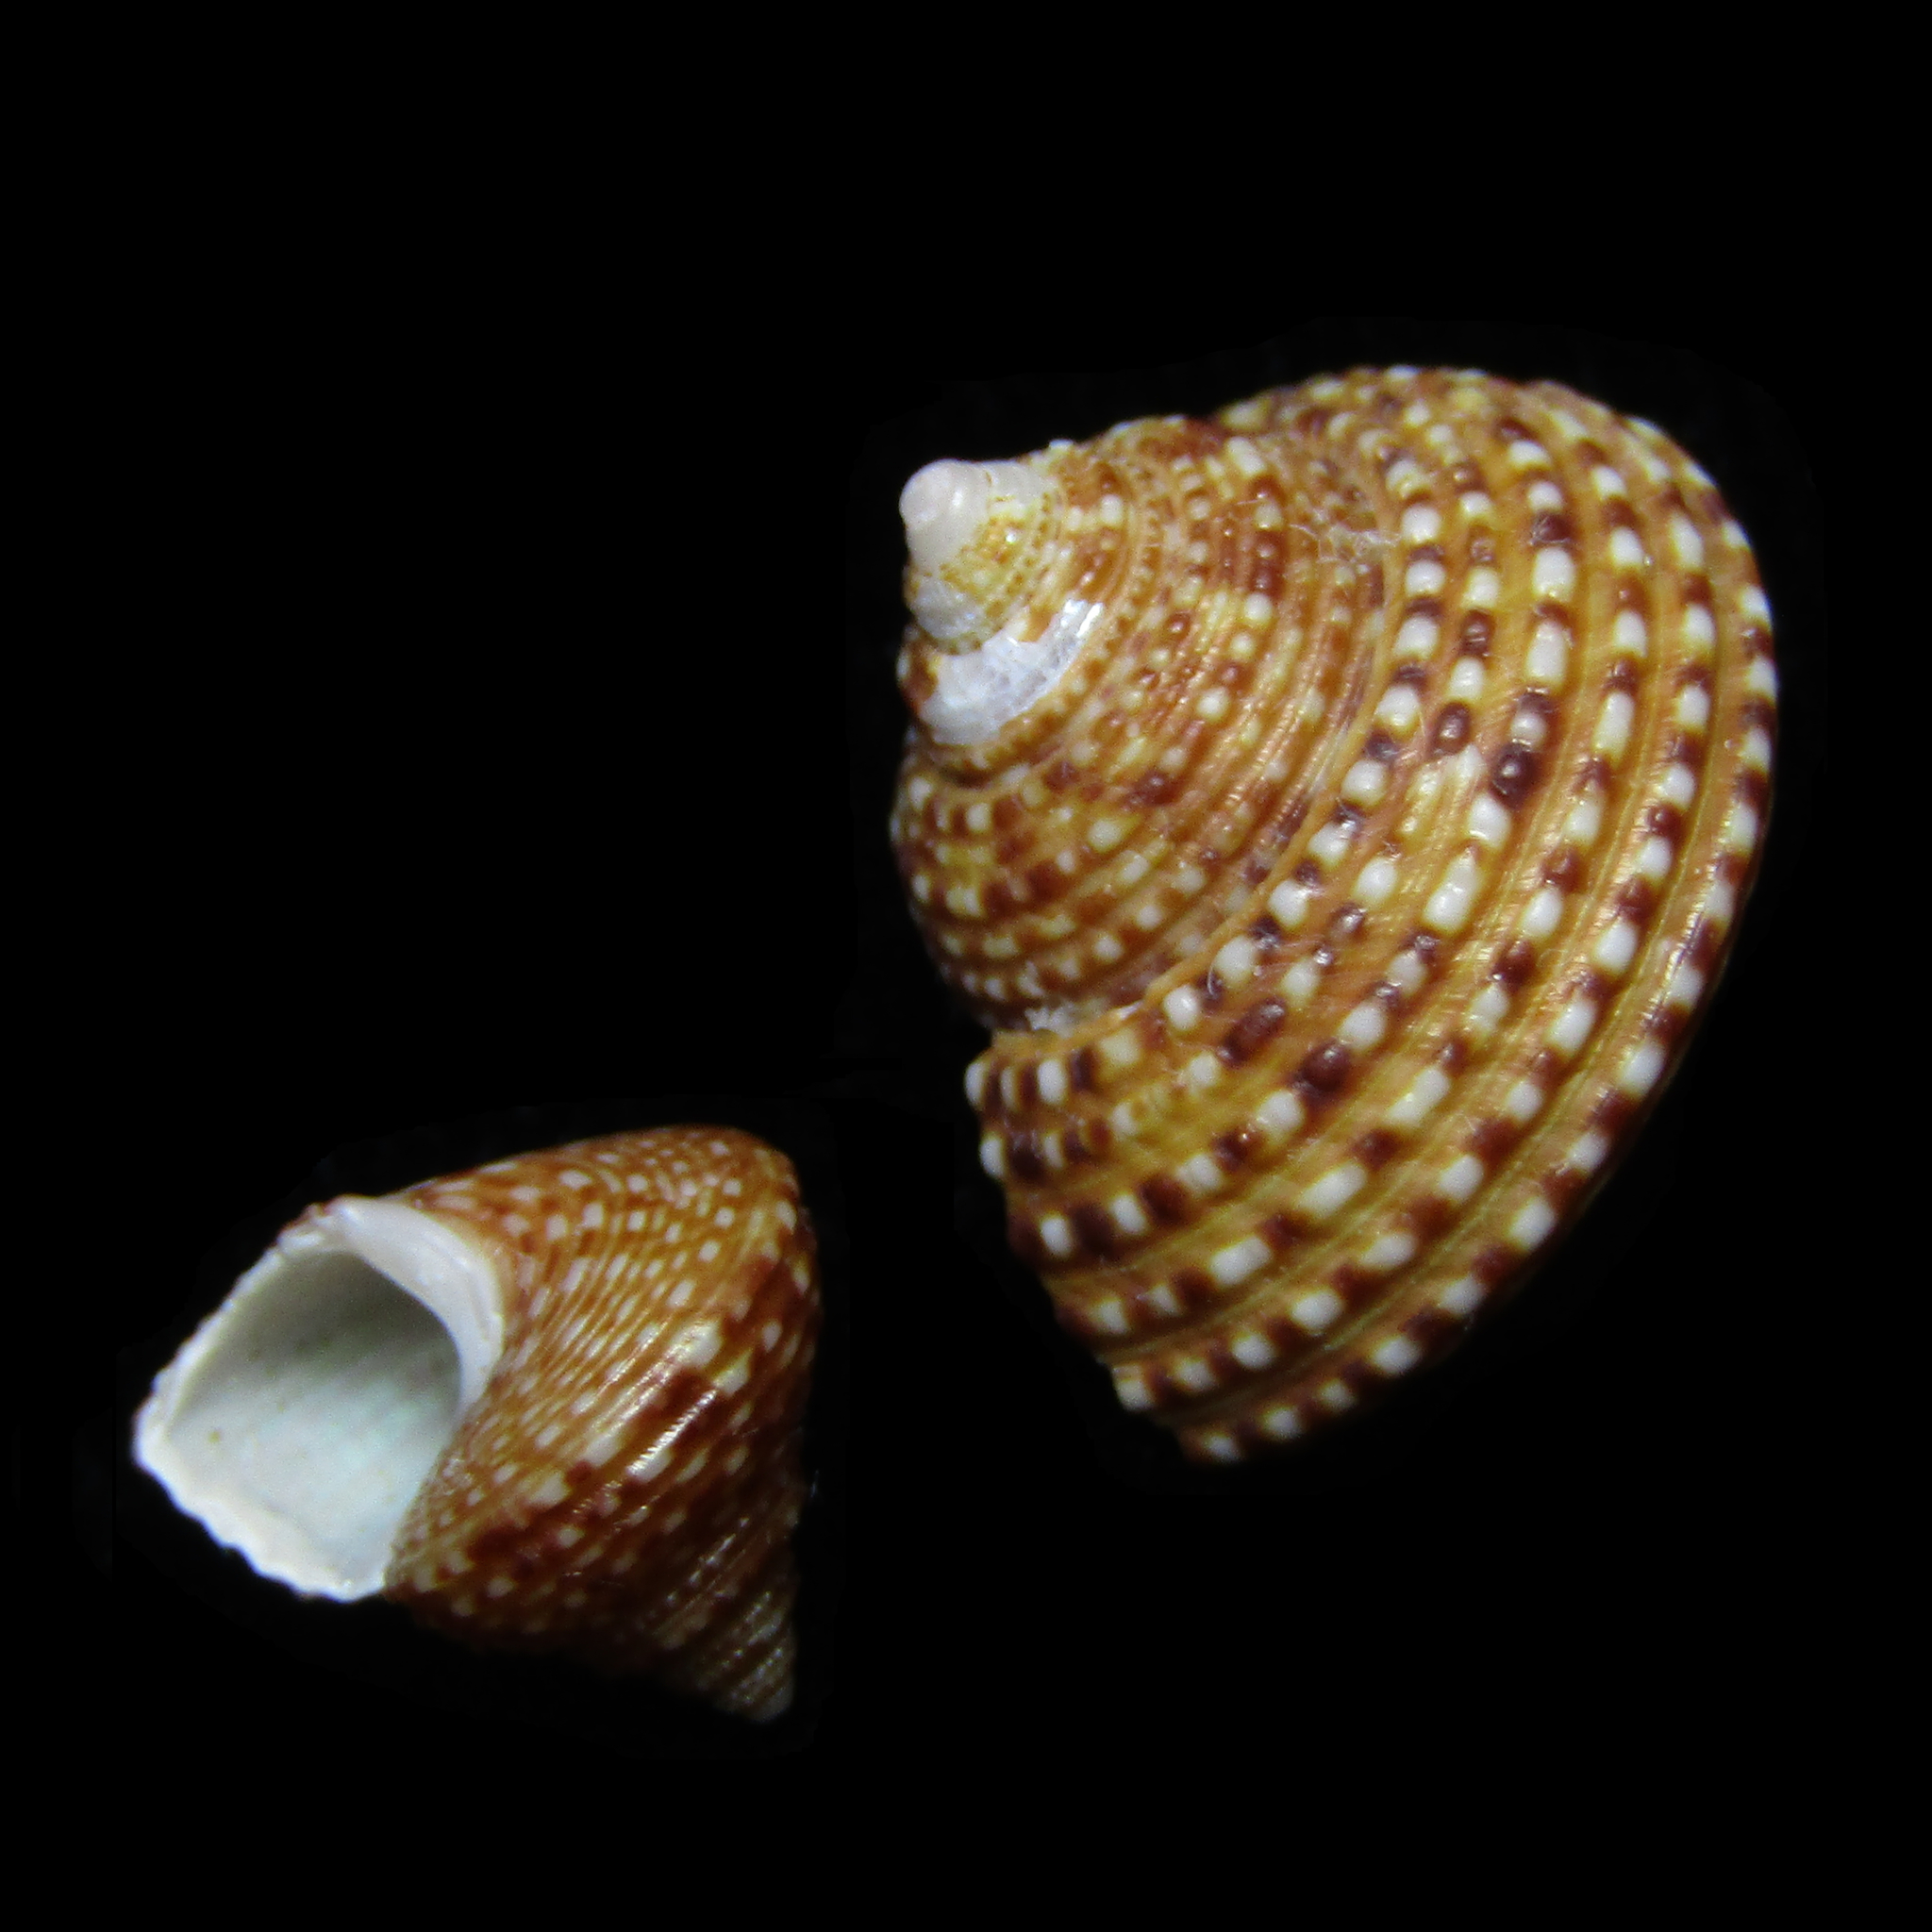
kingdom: Animalia
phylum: Mollusca
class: Gastropoda
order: Trochida
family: Calliostomatidae
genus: Maurea
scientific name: Maurea punctulata
